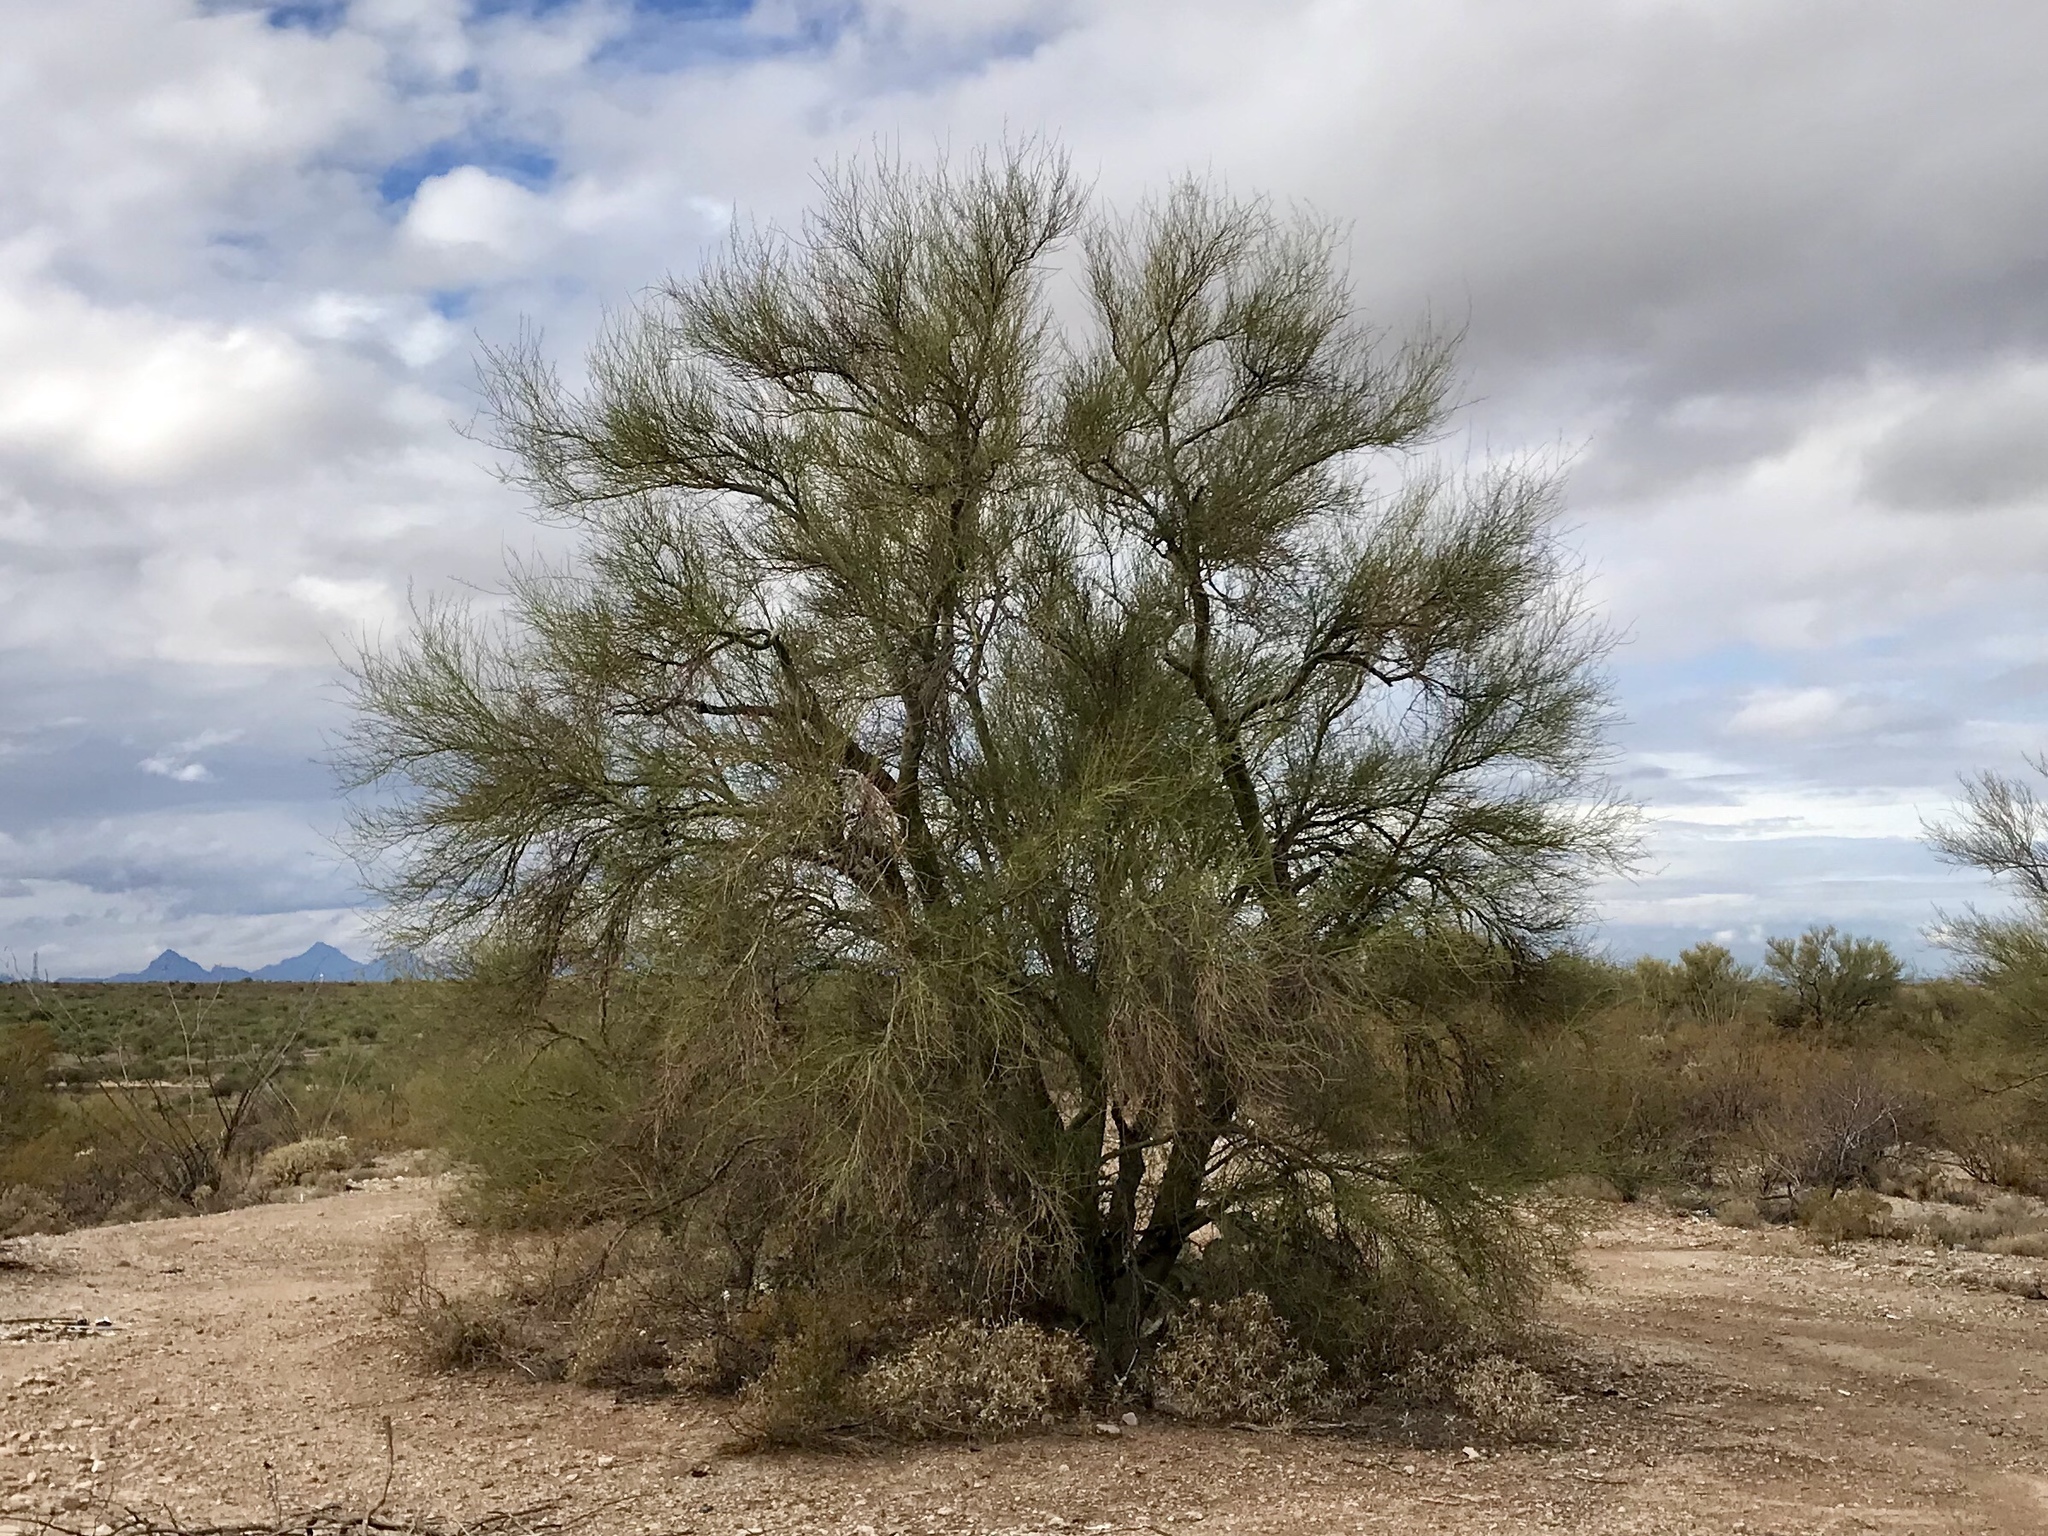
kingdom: Plantae
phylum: Tracheophyta
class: Magnoliopsida
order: Fabales
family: Fabaceae
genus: Parkinsonia
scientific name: Parkinsonia microphylla
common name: Yellow paloverde
